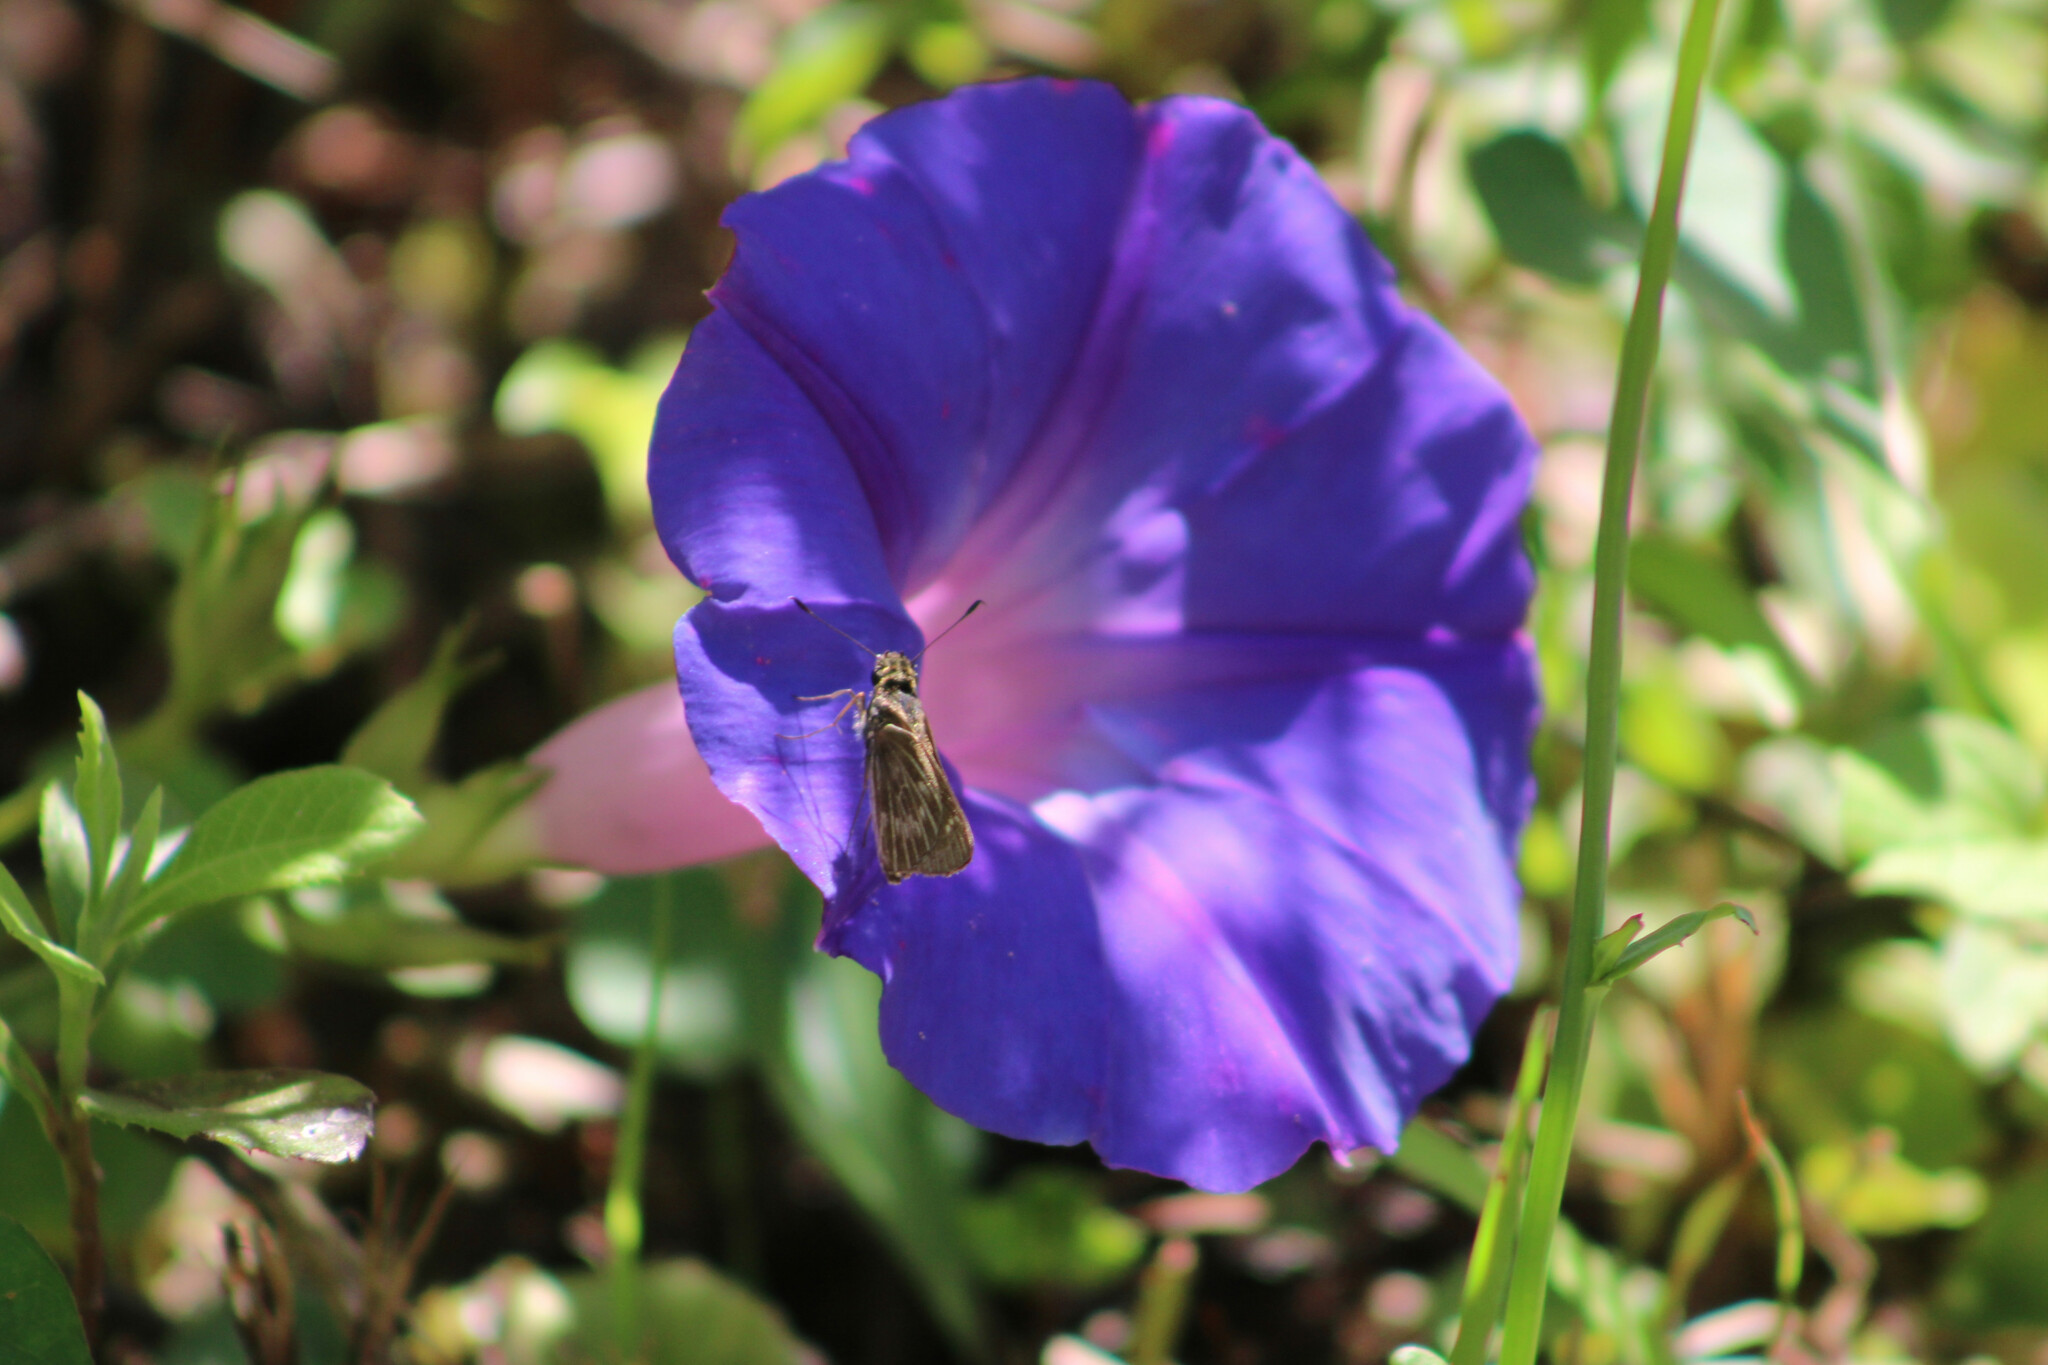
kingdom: Animalia
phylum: Arthropoda
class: Insecta
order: Lepidoptera
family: Hesperiidae
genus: Vehilius
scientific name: Vehilius stictomenes
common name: Pasture skipper
